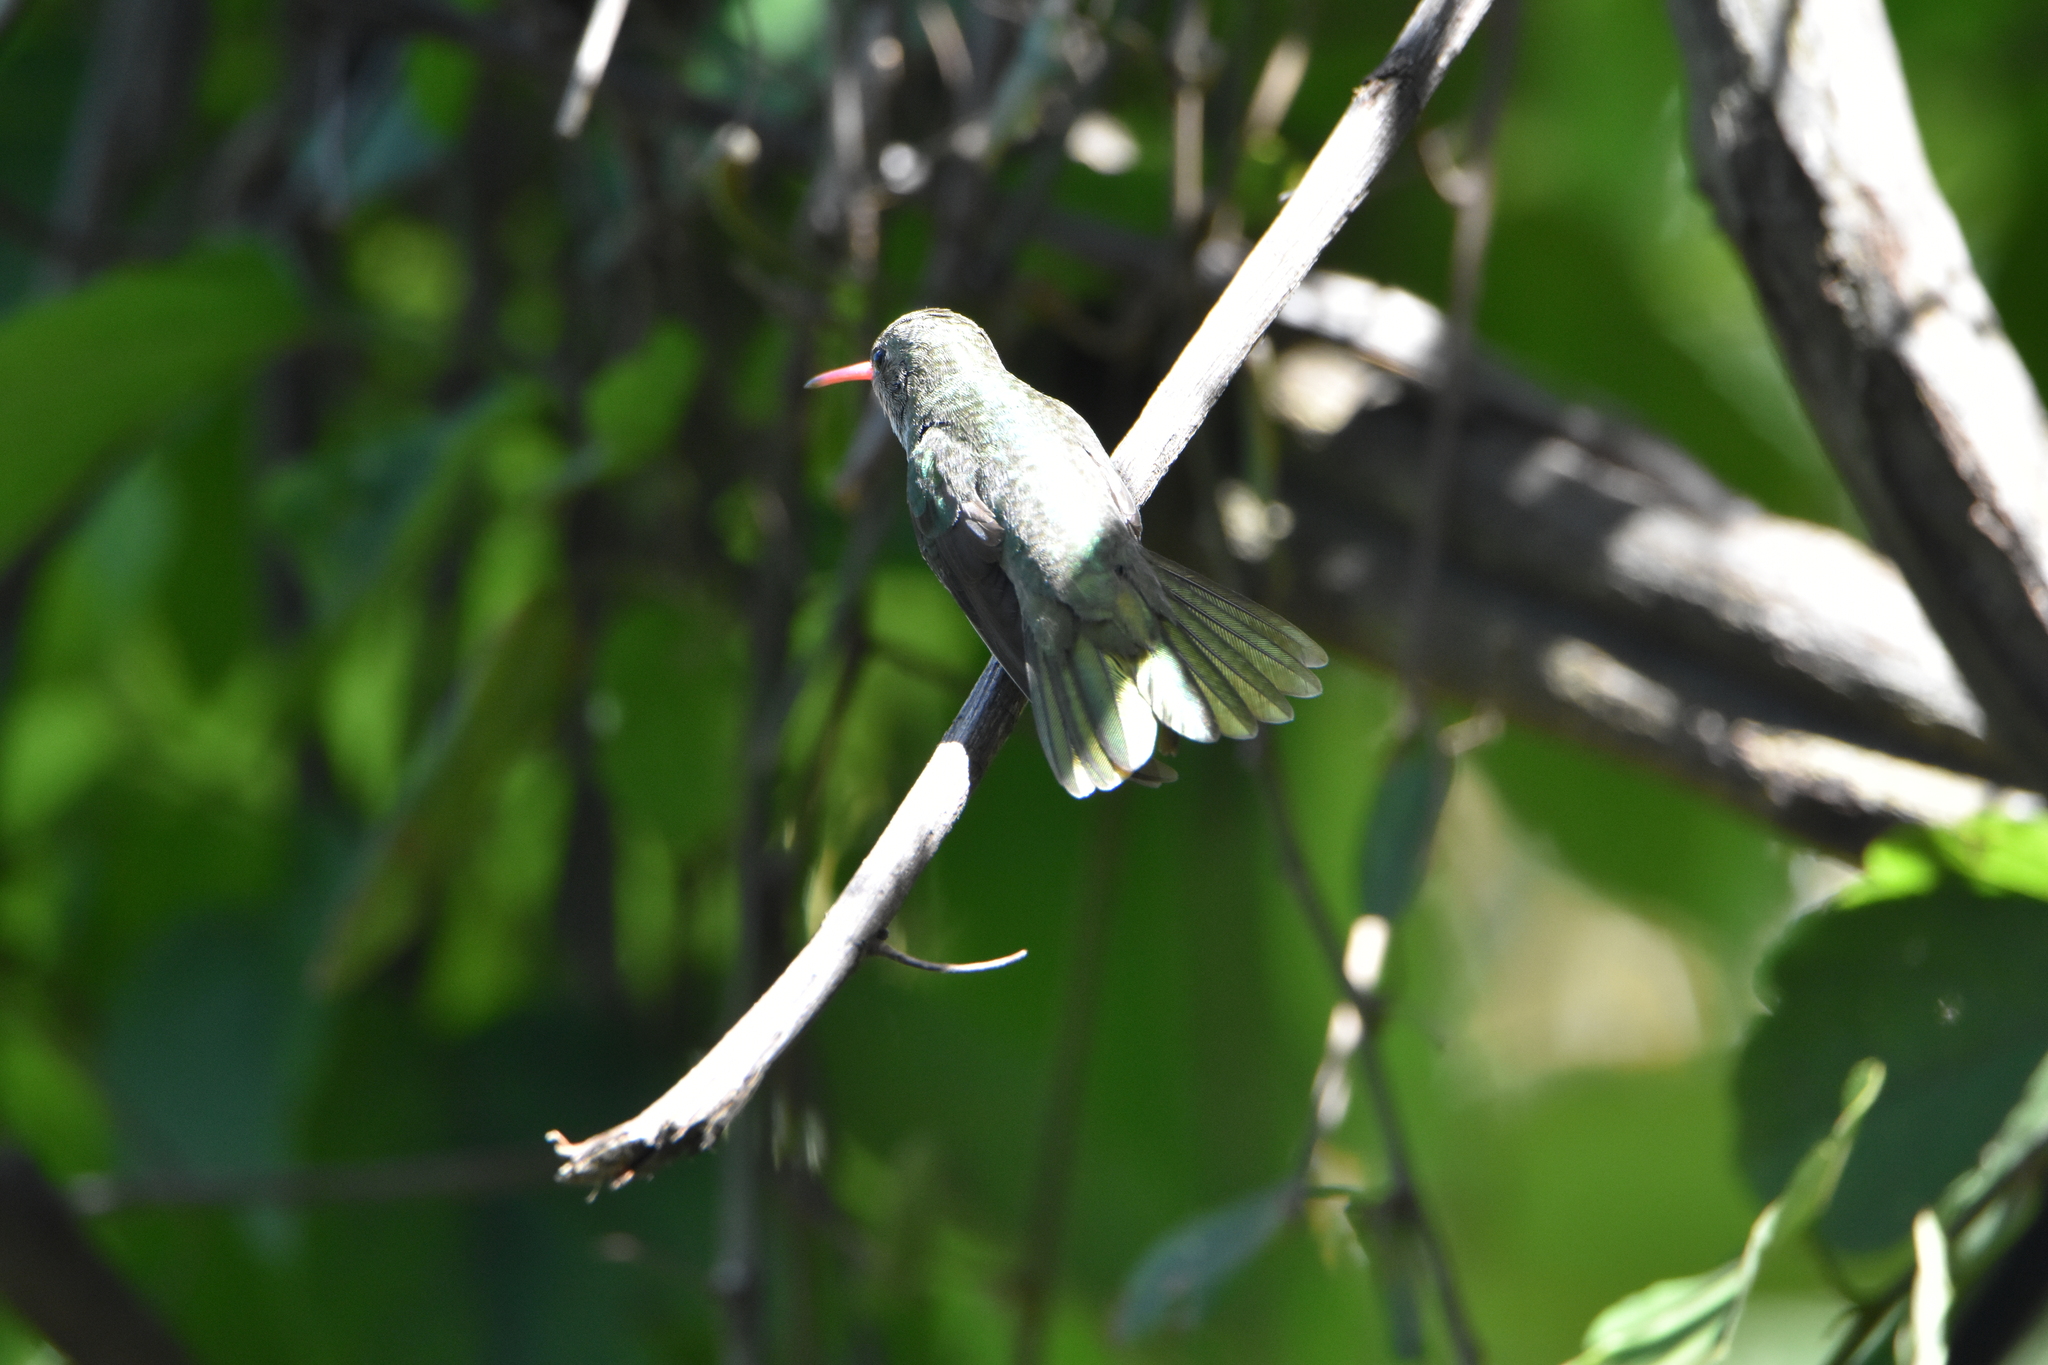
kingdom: Animalia
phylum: Chordata
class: Aves
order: Apodiformes
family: Trochilidae
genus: Hylocharis
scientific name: Hylocharis chrysura
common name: Gilded sapphire
